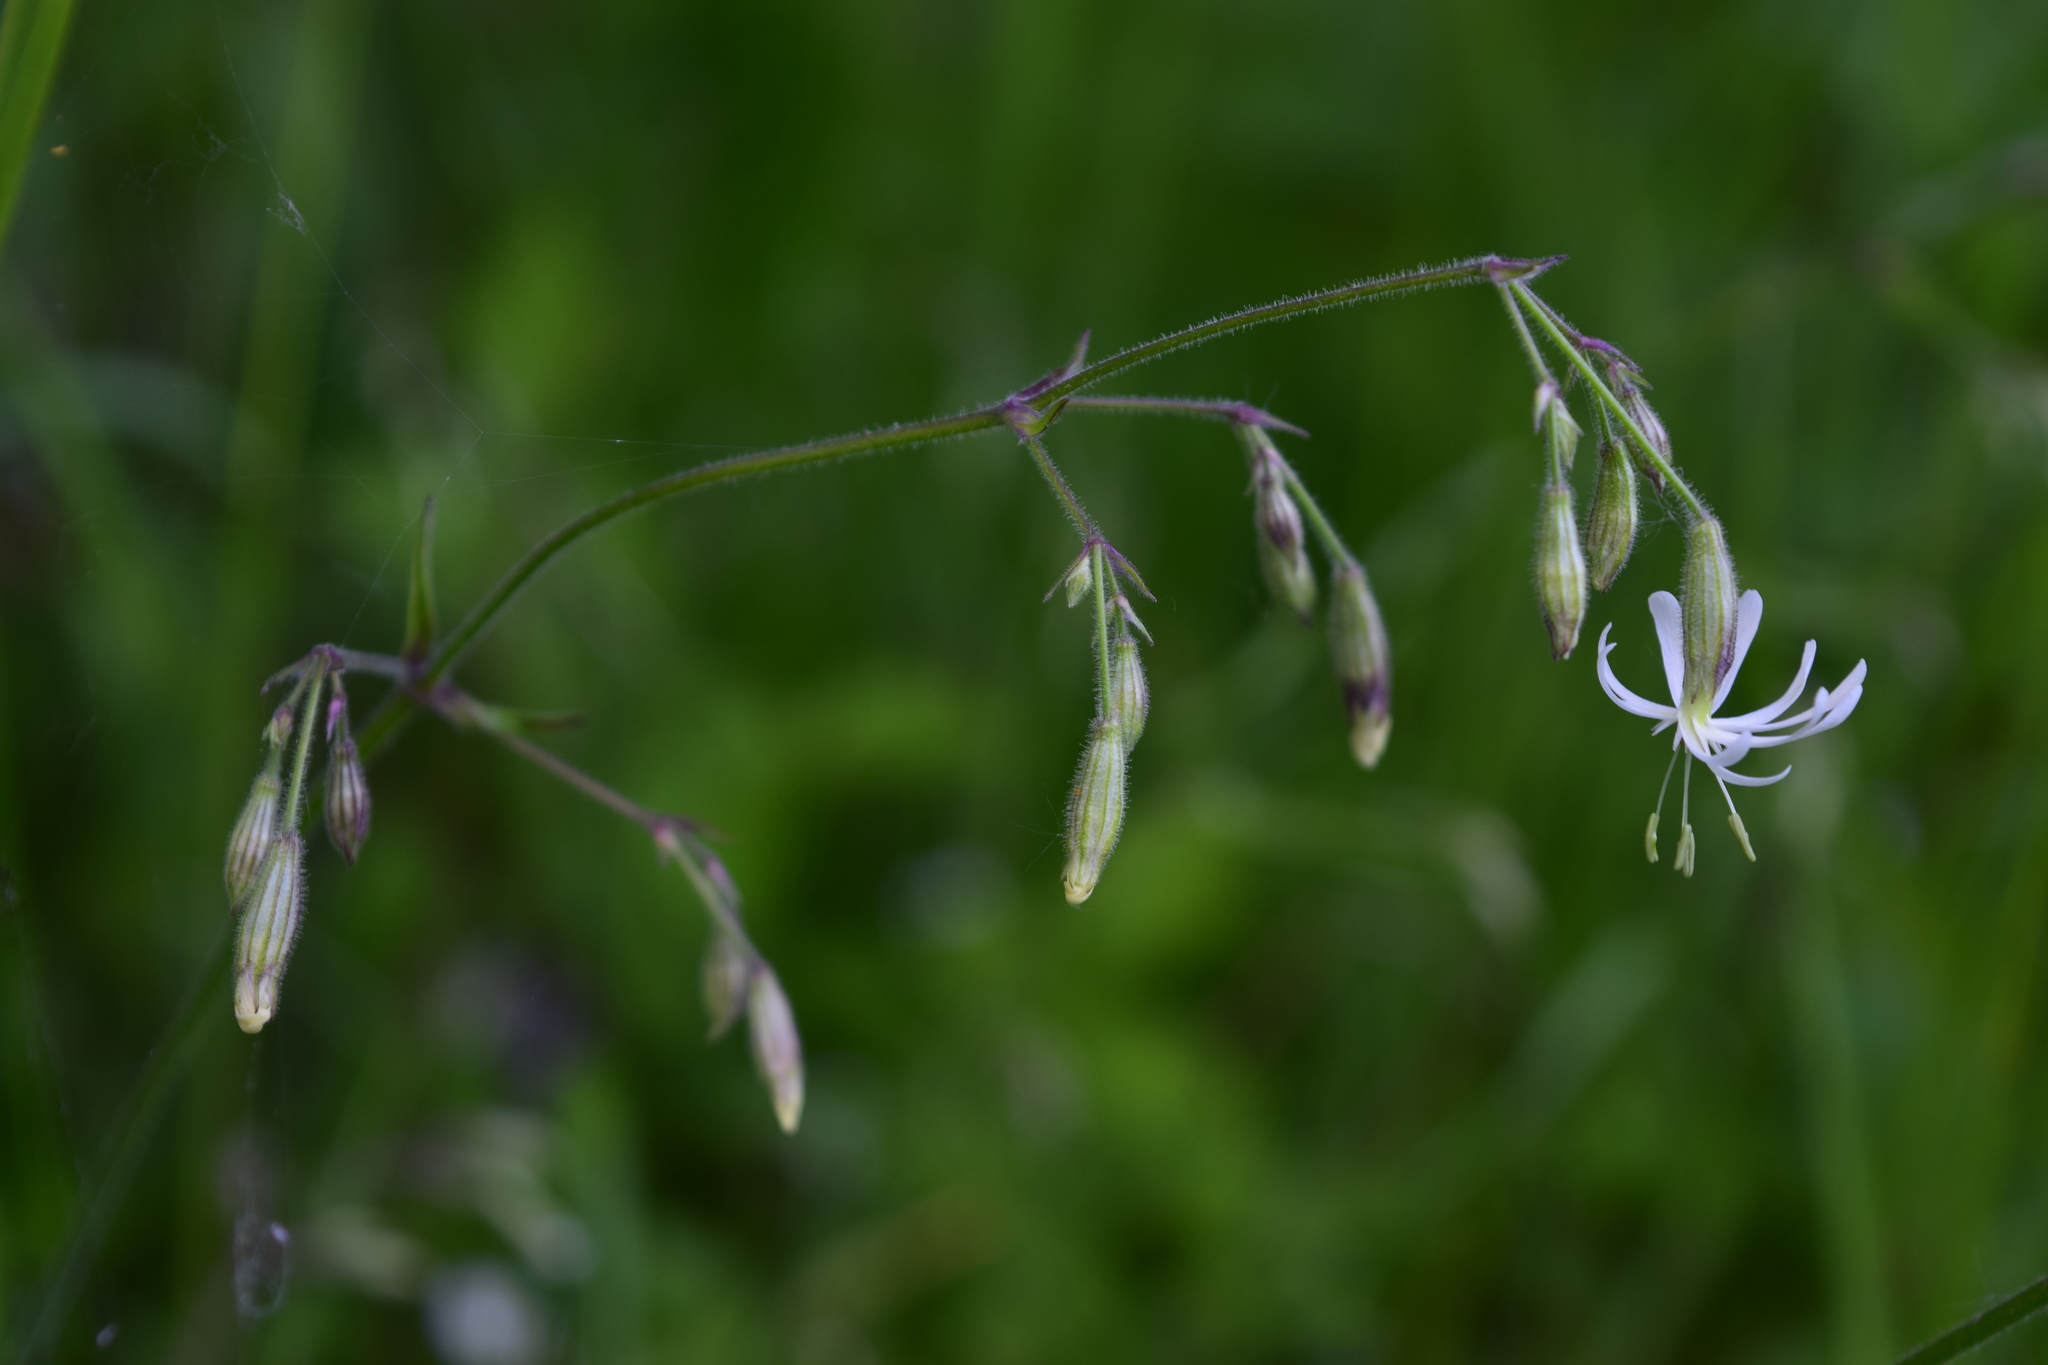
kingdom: Plantae
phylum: Tracheophyta
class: Magnoliopsida
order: Caryophyllales
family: Caryophyllaceae
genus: Silene
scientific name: Silene nutans
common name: Nottingham catchfly
